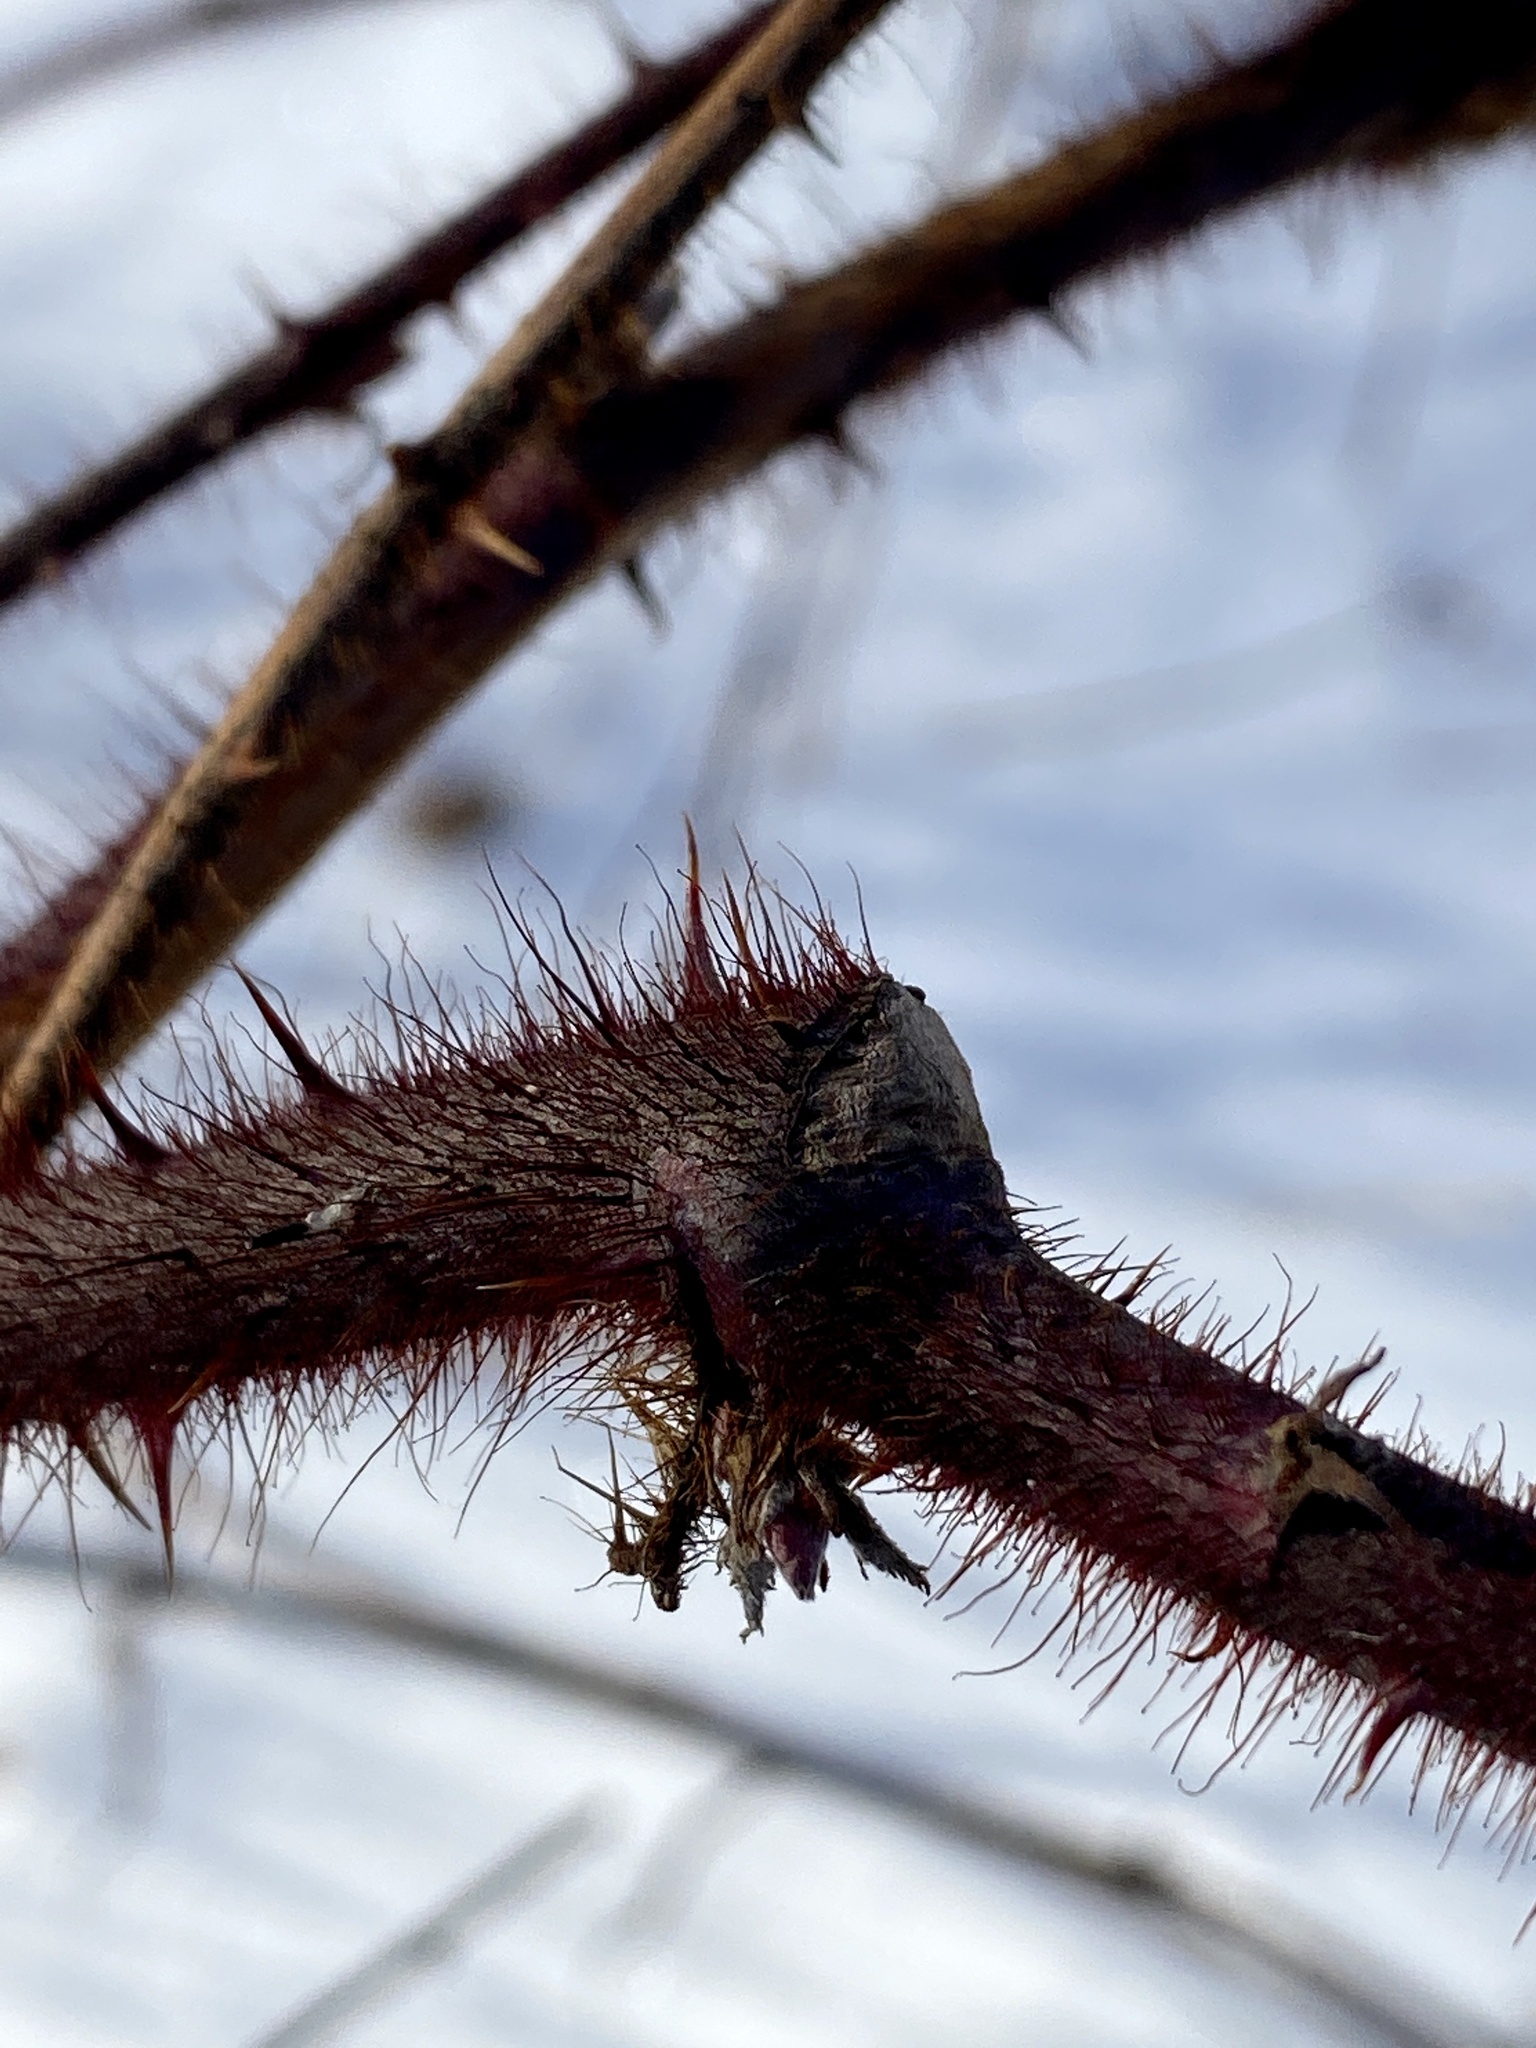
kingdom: Plantae
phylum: Tracheophyta
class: Magnoliopsida
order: Rosales
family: Rosaceae
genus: Rubus
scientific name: Rubus phoenicolasius
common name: Japanese wineberry
